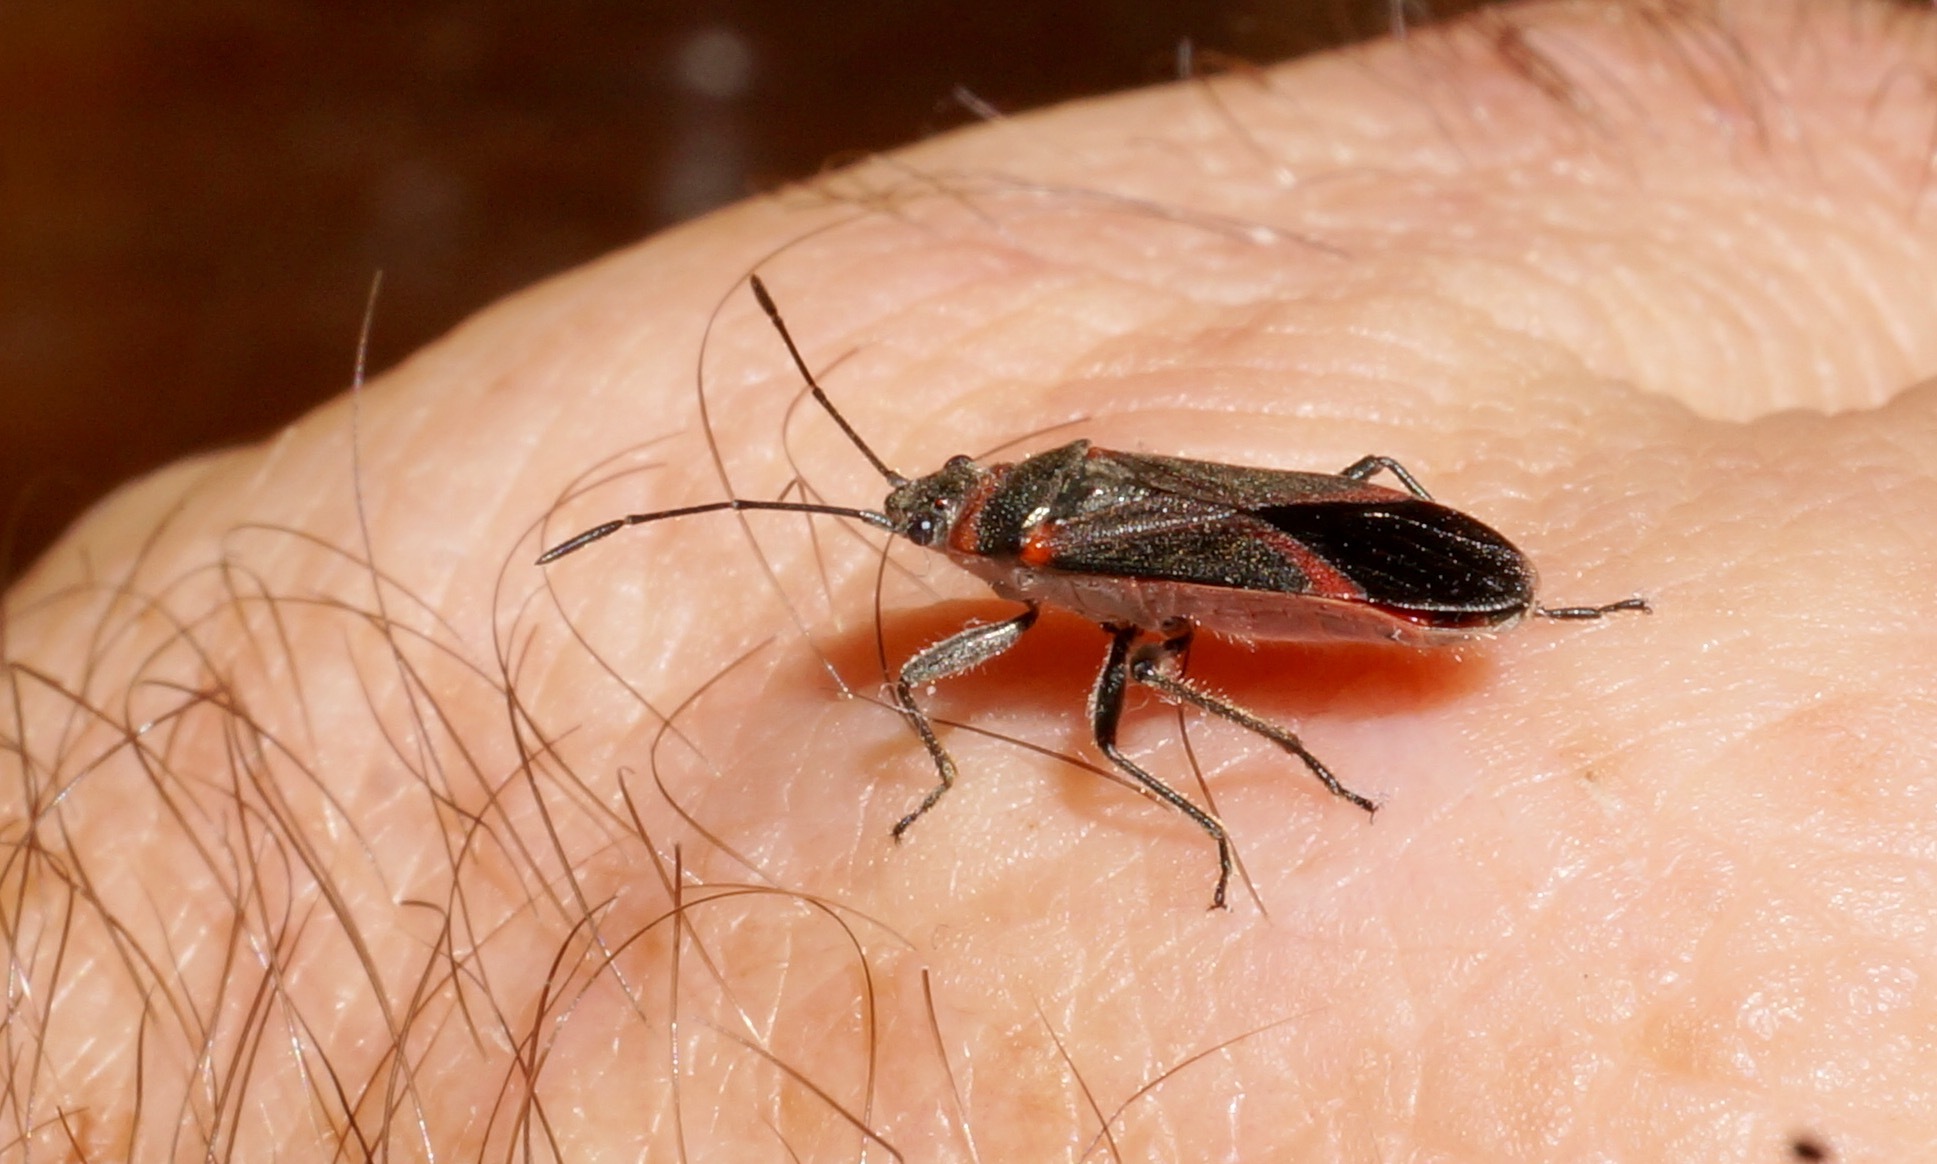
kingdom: Animalia
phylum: Arthropoda
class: Insecta
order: Hemiptera
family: Lygaeidae
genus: Arocatus
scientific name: Arocatus rusticus
